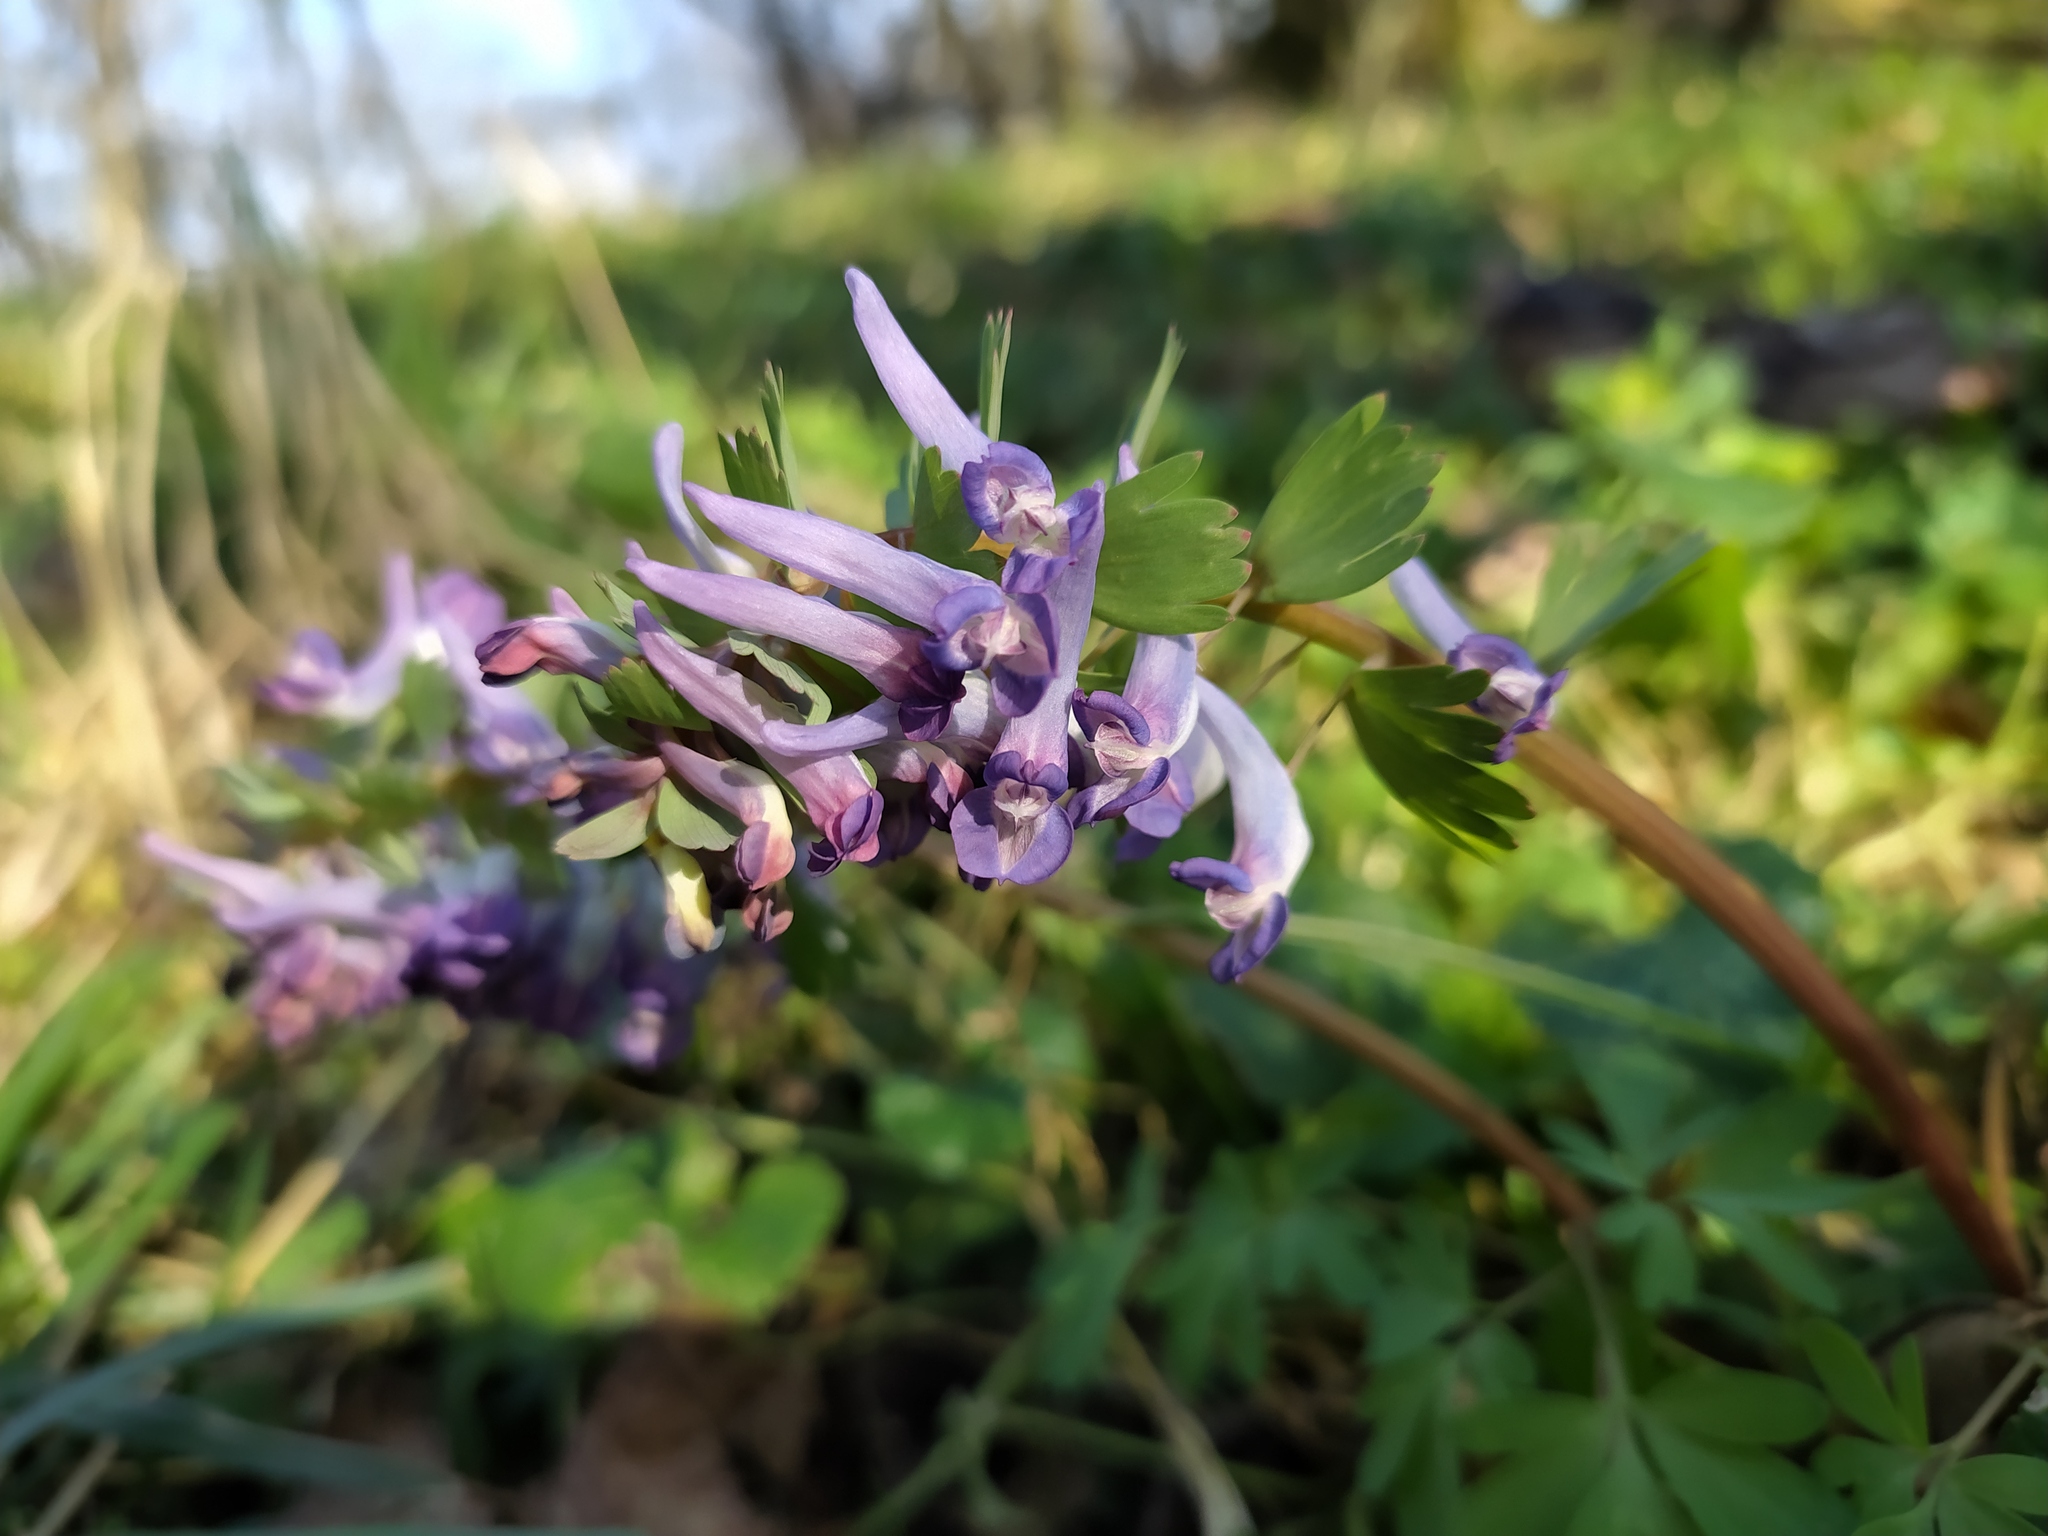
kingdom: Plantae
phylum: Tracheophyta
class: Magnoliopsida
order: Ranunculales
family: Papaveraceae
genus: Corydalis
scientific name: Corydalis solida
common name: Bird-in-a-bush
